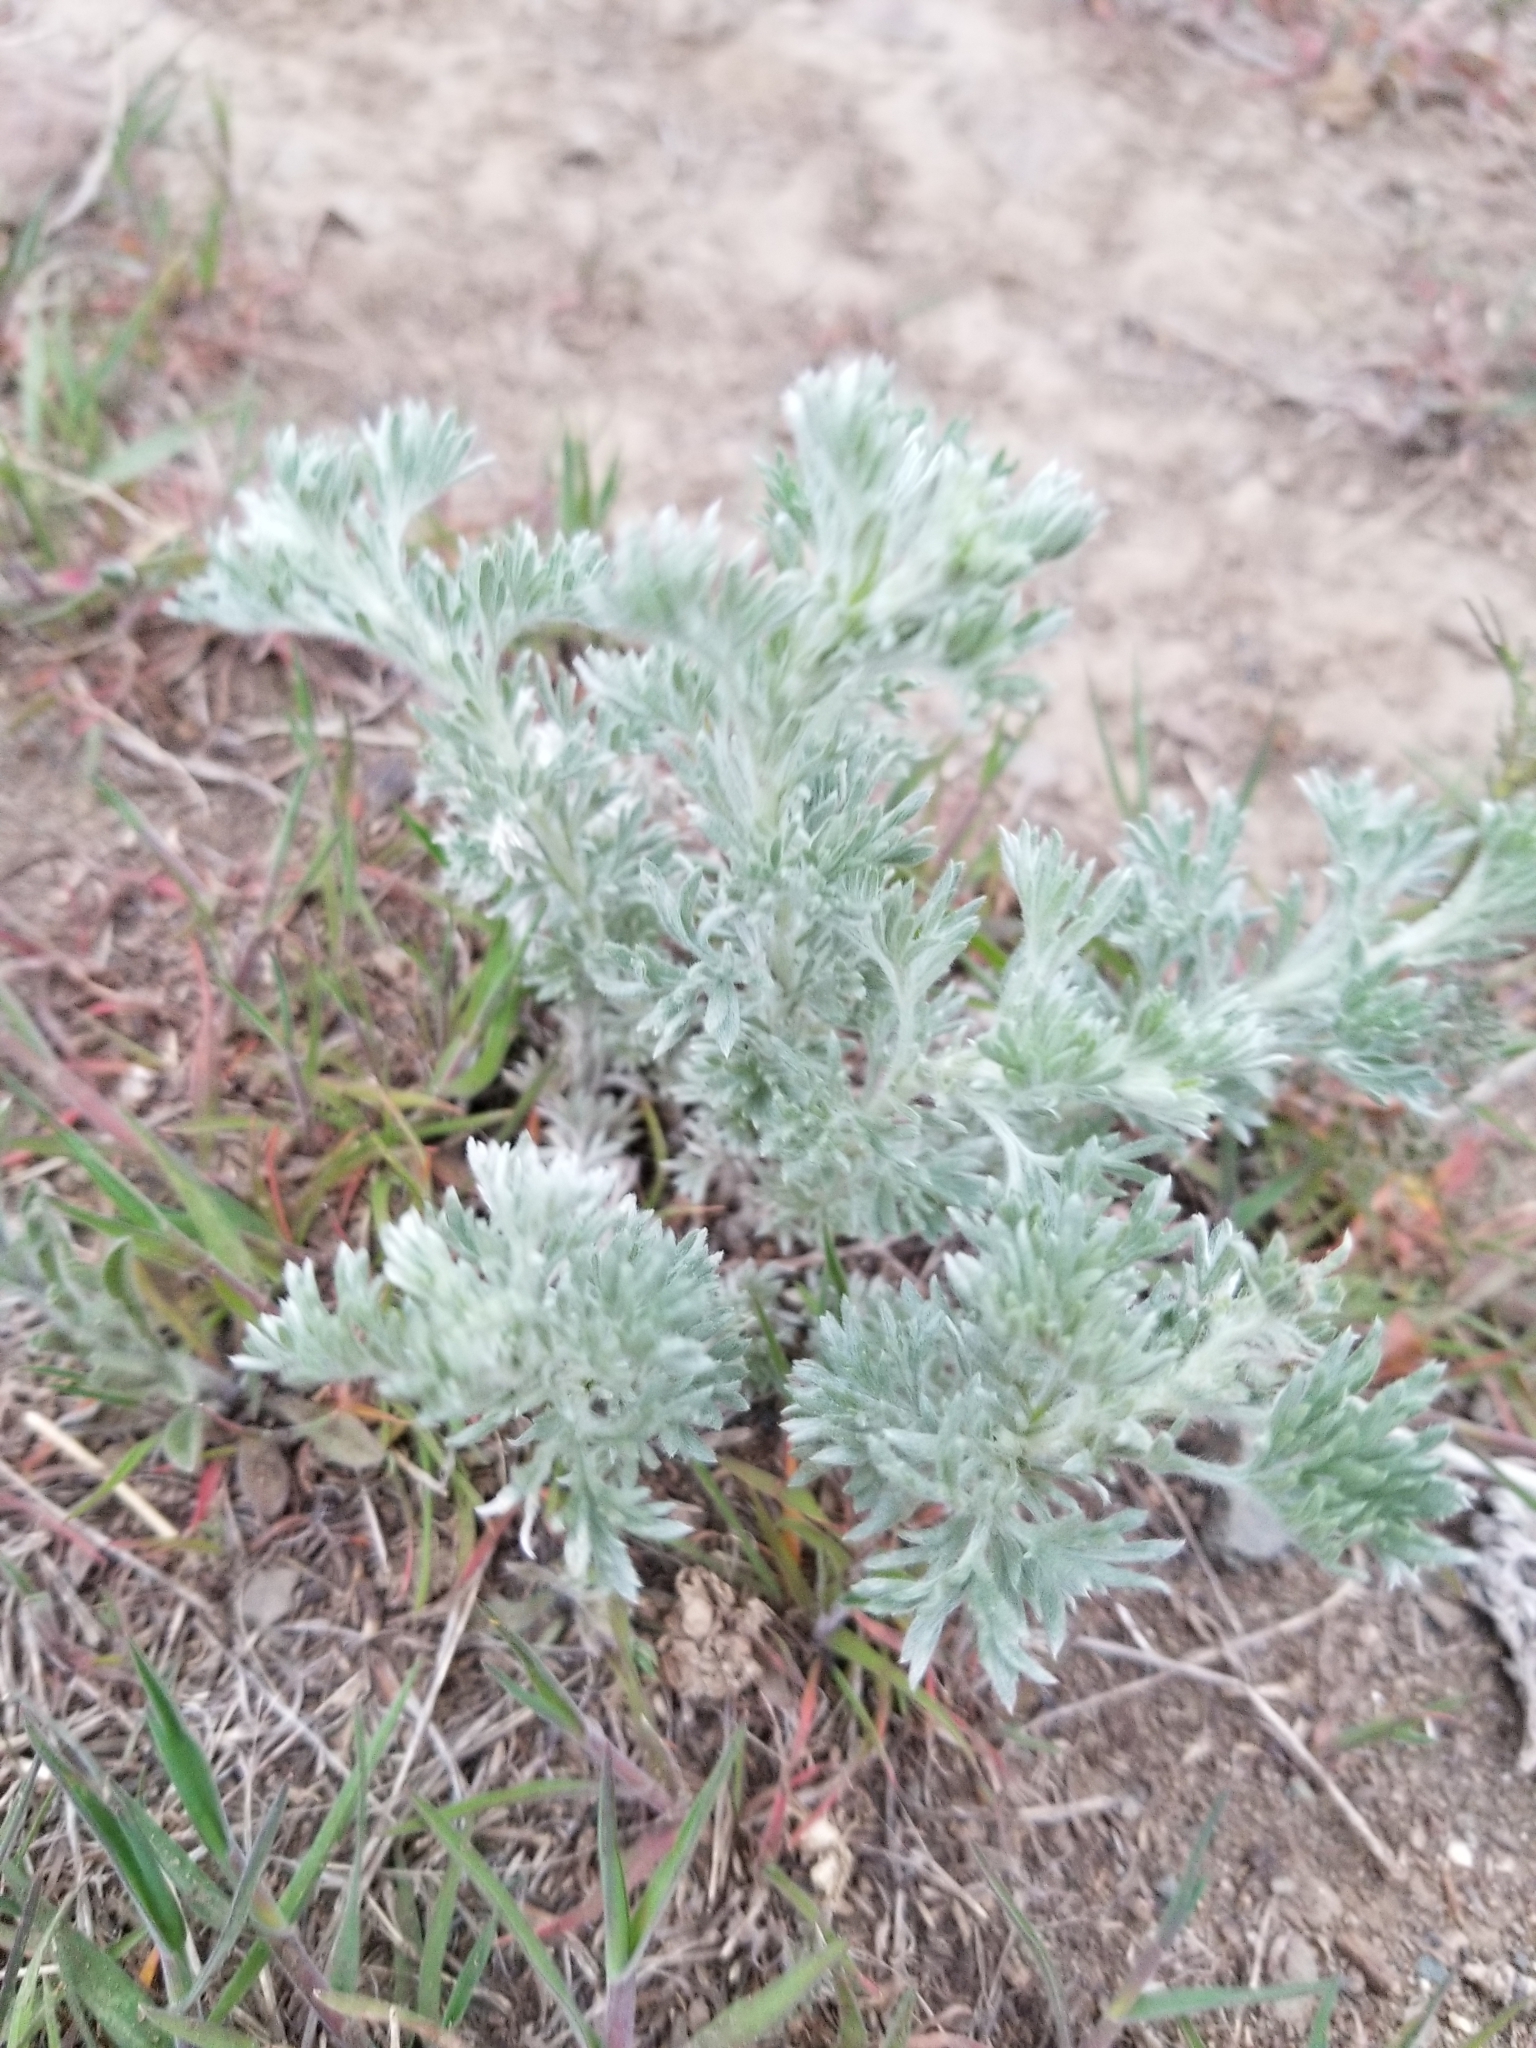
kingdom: Plantae
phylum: Tracheophyta
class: Magnoliopsida
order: Asterales
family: Asteraceae
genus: Artemisia
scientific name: Artemisia frigida
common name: Prairie sagewort
